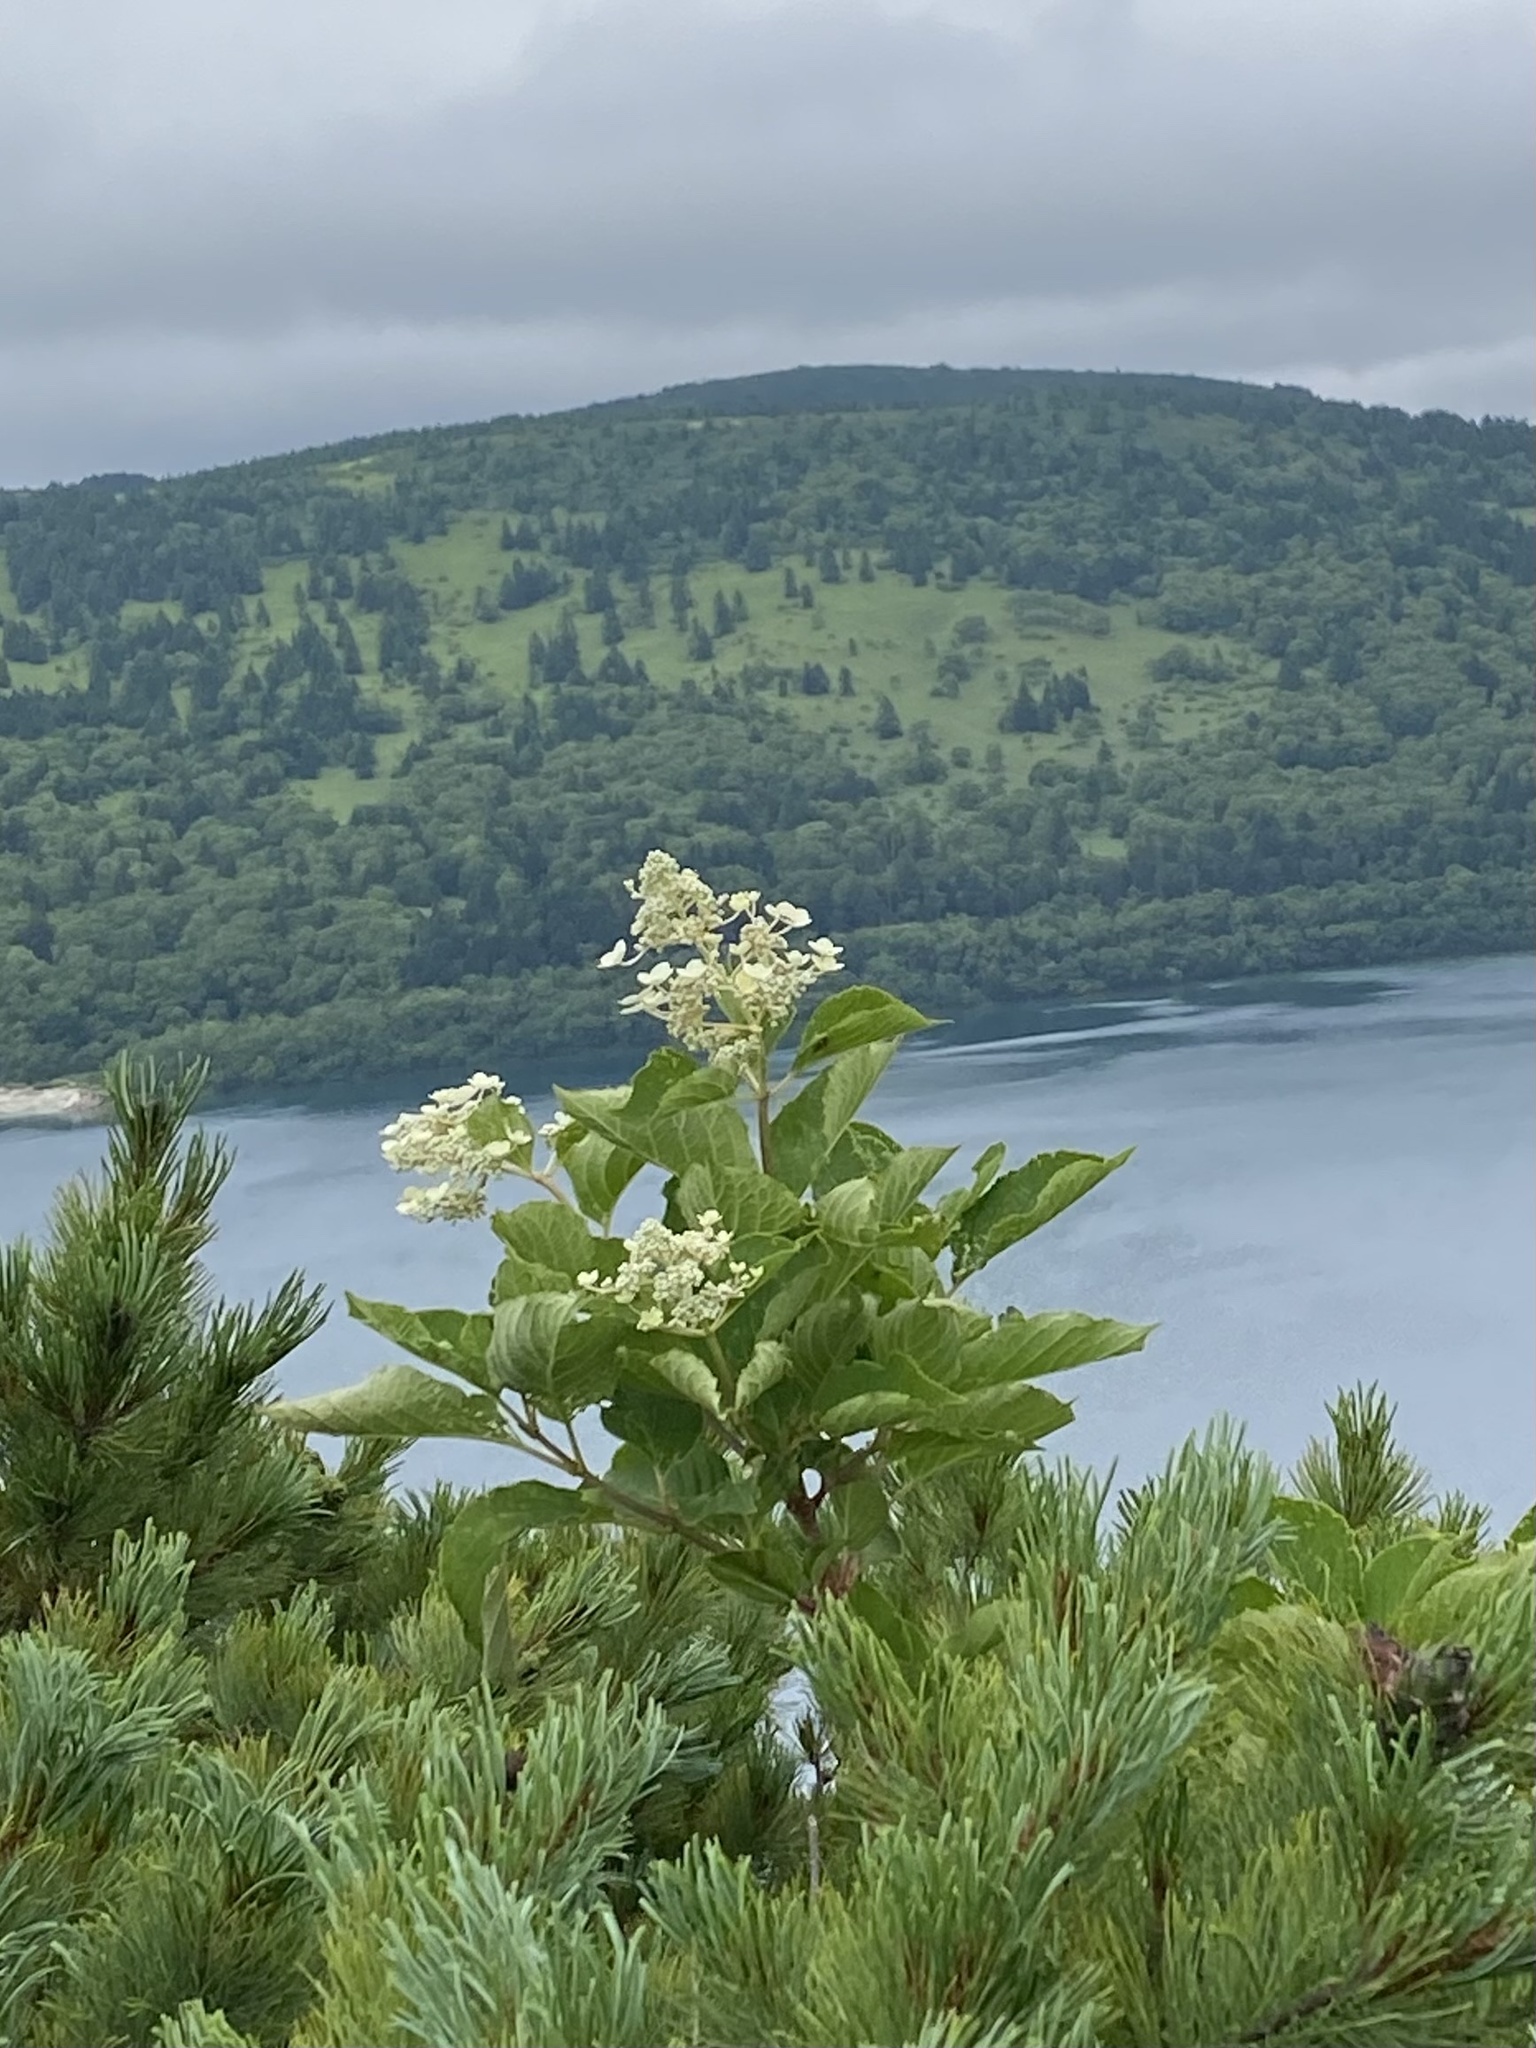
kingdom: Plantae
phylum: Tracheophyta
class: Magnoliopsida
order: Cornales
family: Hydrangeaceae
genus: Hydrangea
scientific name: Hydrangea paniculata
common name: Panicled hydrangea
